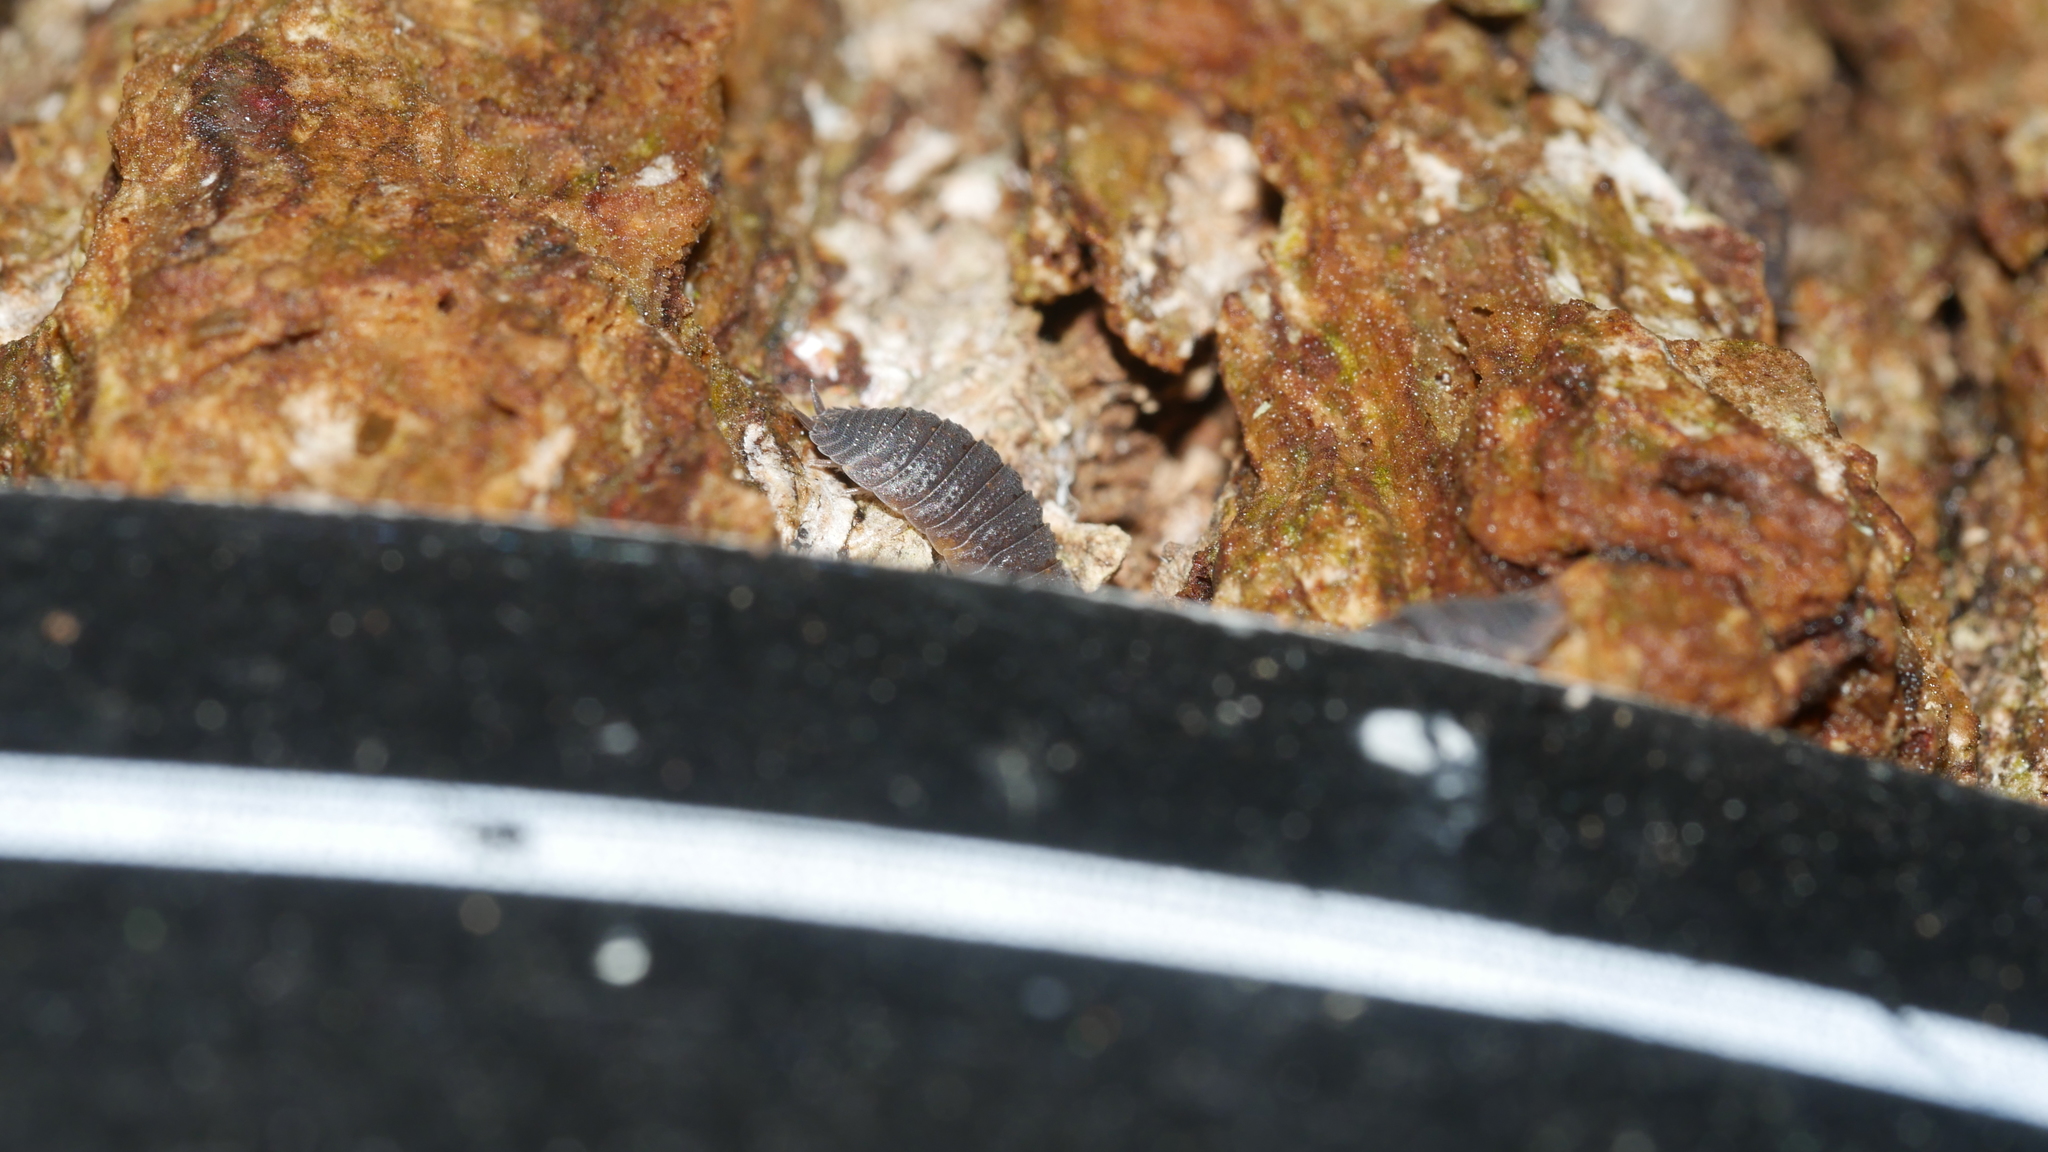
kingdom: Animalia
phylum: Arthropoda
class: Malacostraca
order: Isopoda
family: Porcellionidae
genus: Porcellio
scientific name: Porcellio scaber
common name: Common rough woodlouse
